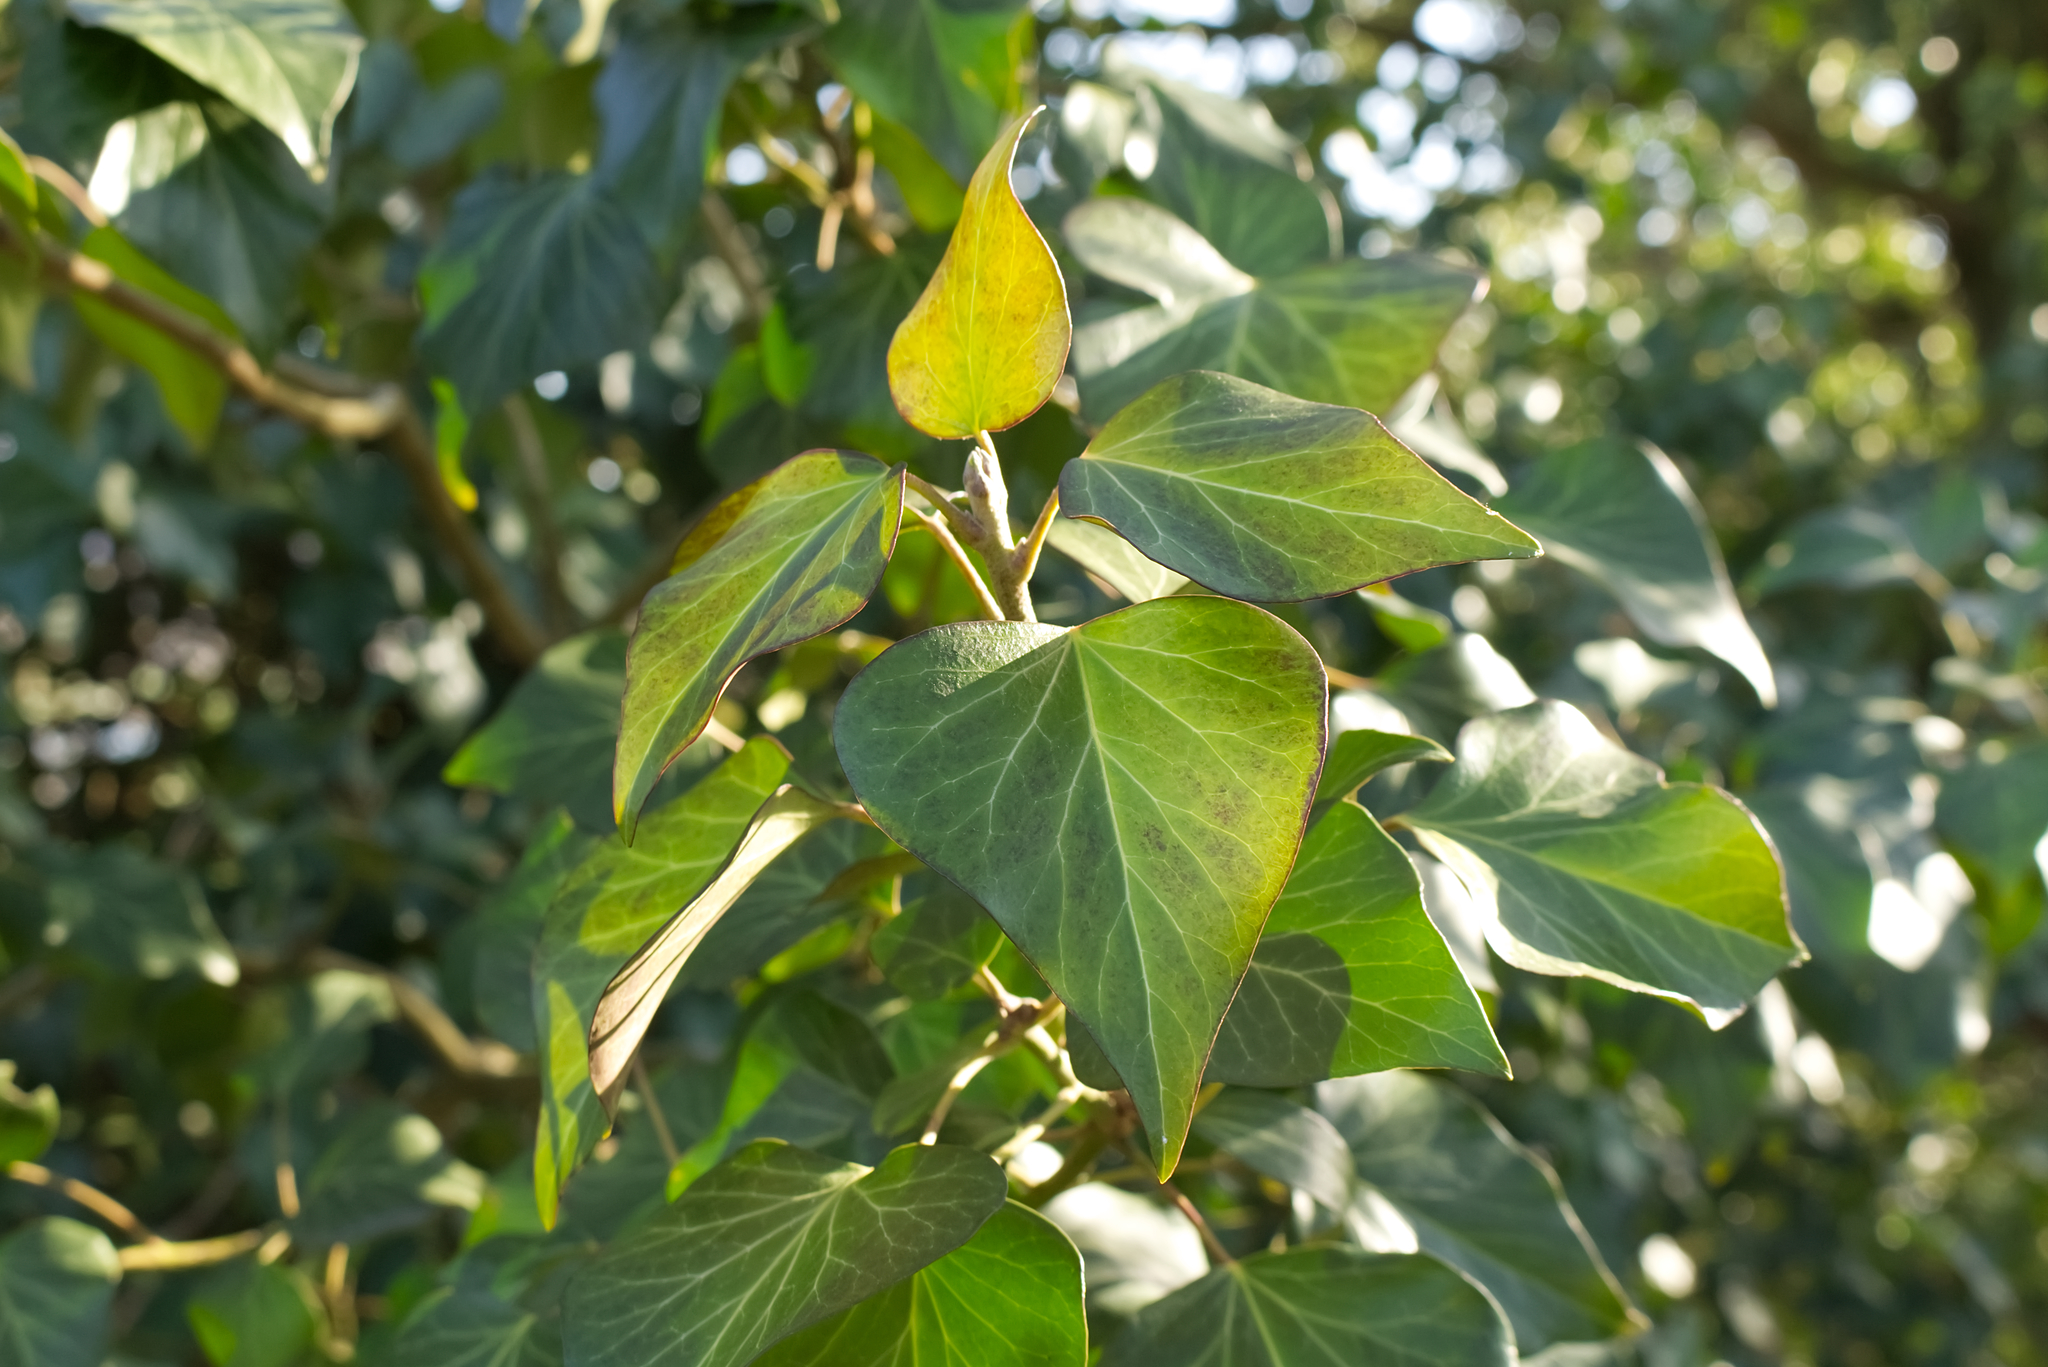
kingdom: Plantae
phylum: Tracheophyta
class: Magnoliopsida
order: Apiales
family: Araliaceae
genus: Hedera
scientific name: Hedera helix
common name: Ivy
